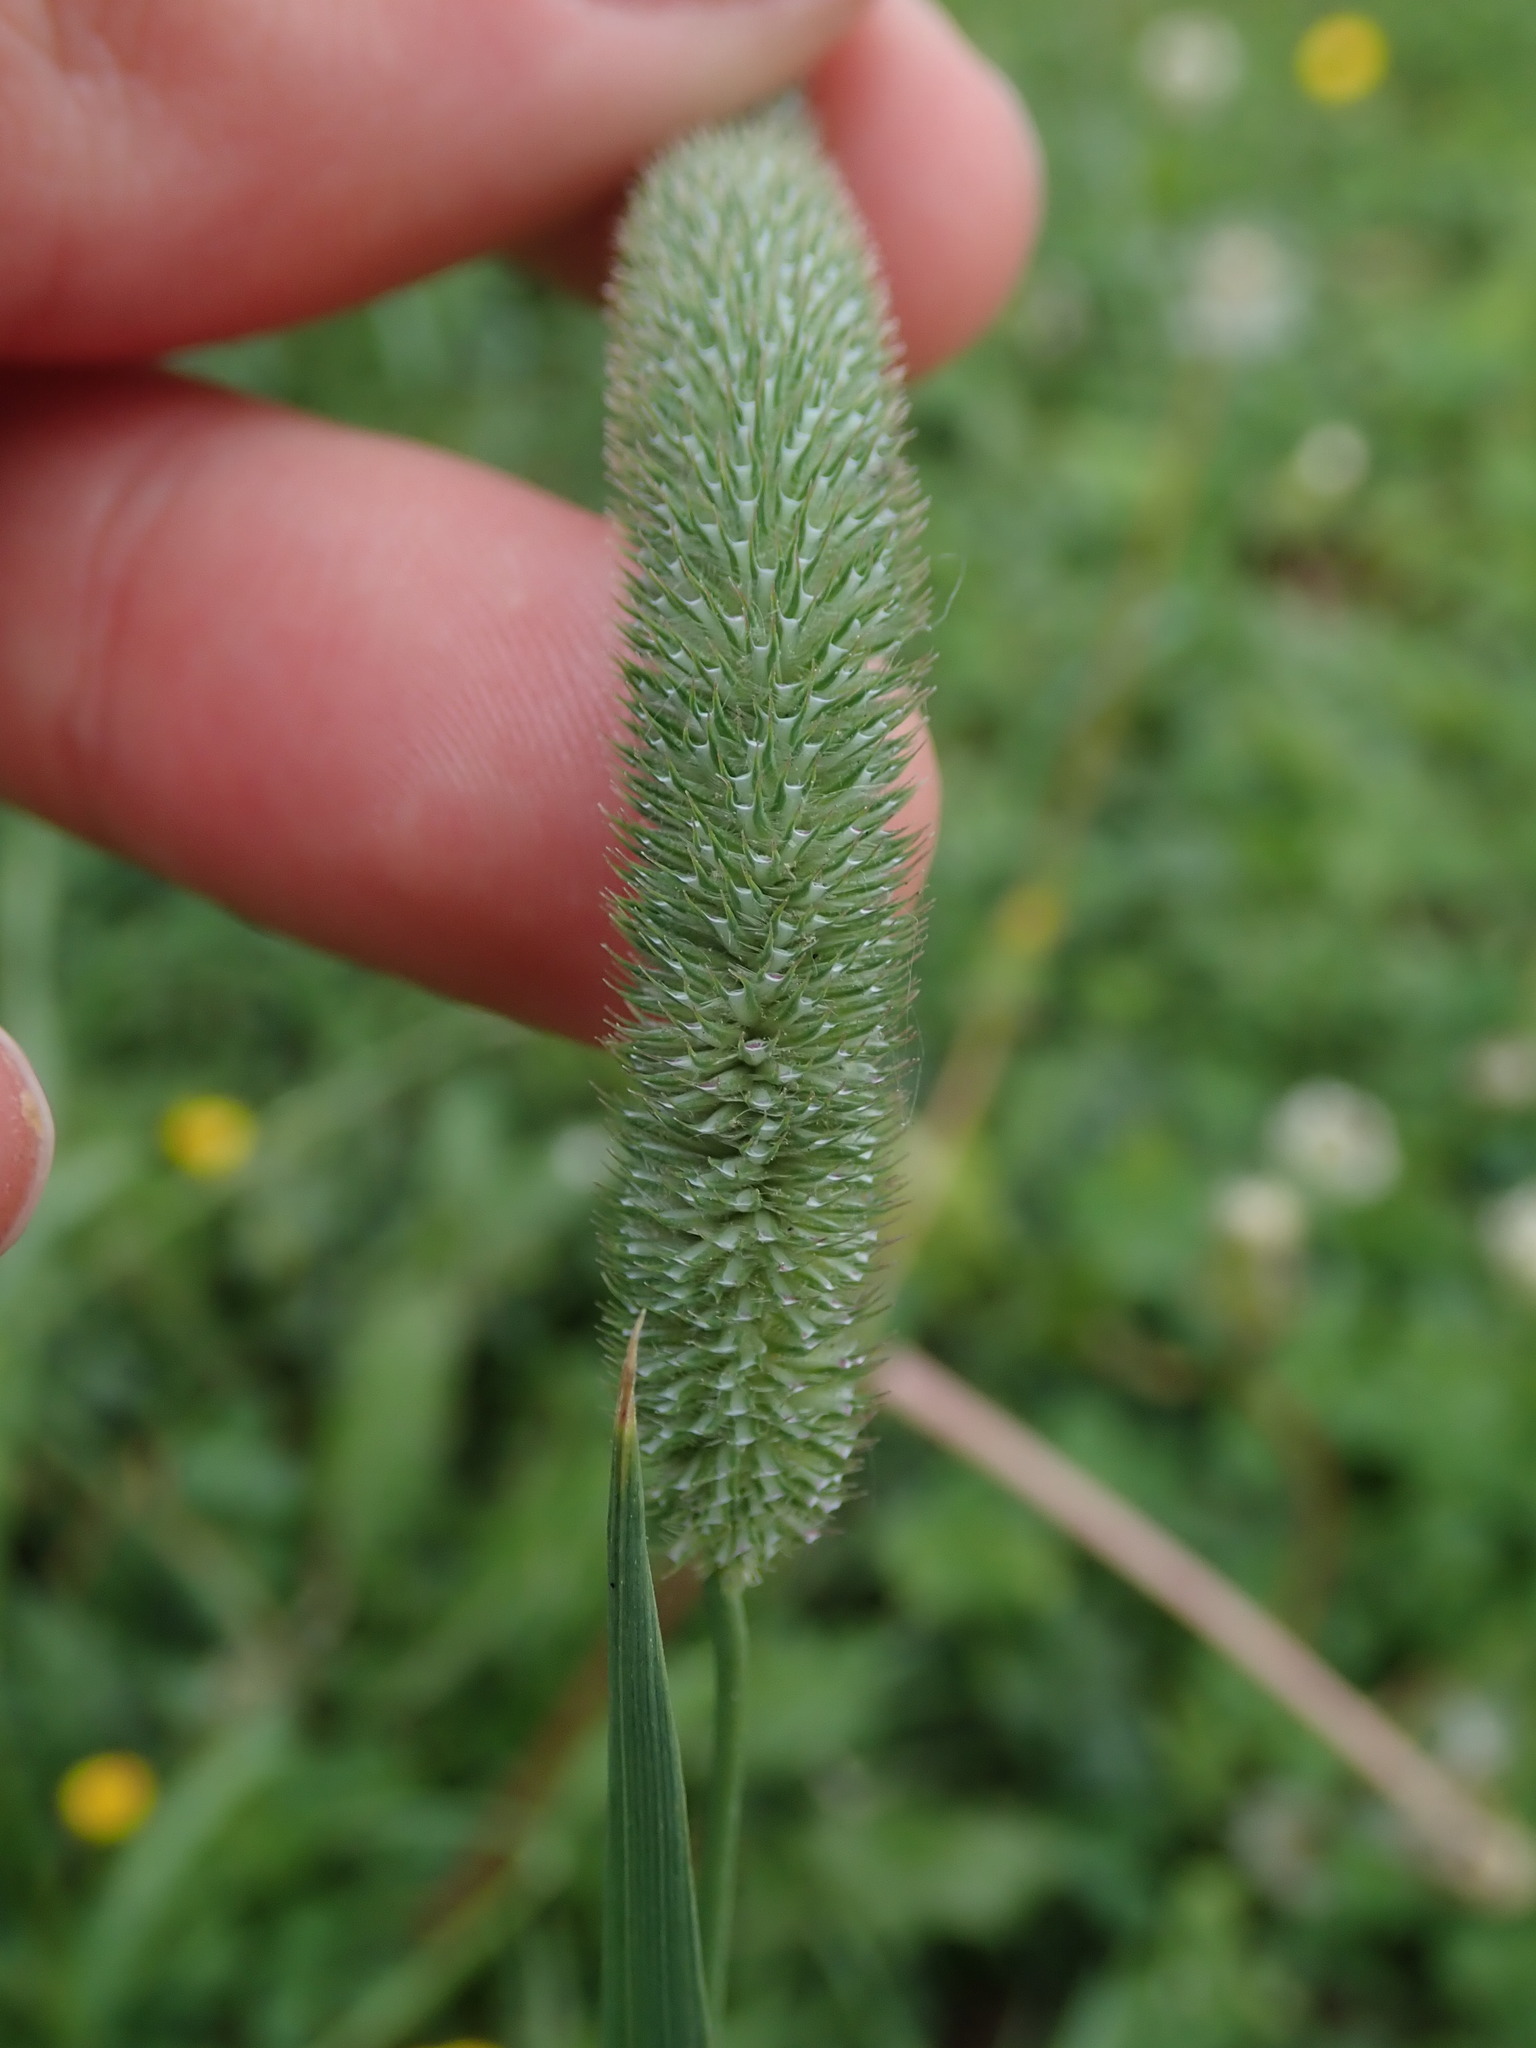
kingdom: Plantae
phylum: Tracheophyta
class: Liliopsida
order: Poales
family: Poaceae
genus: Phleum
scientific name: Phleum pratense
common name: Timothy grass
